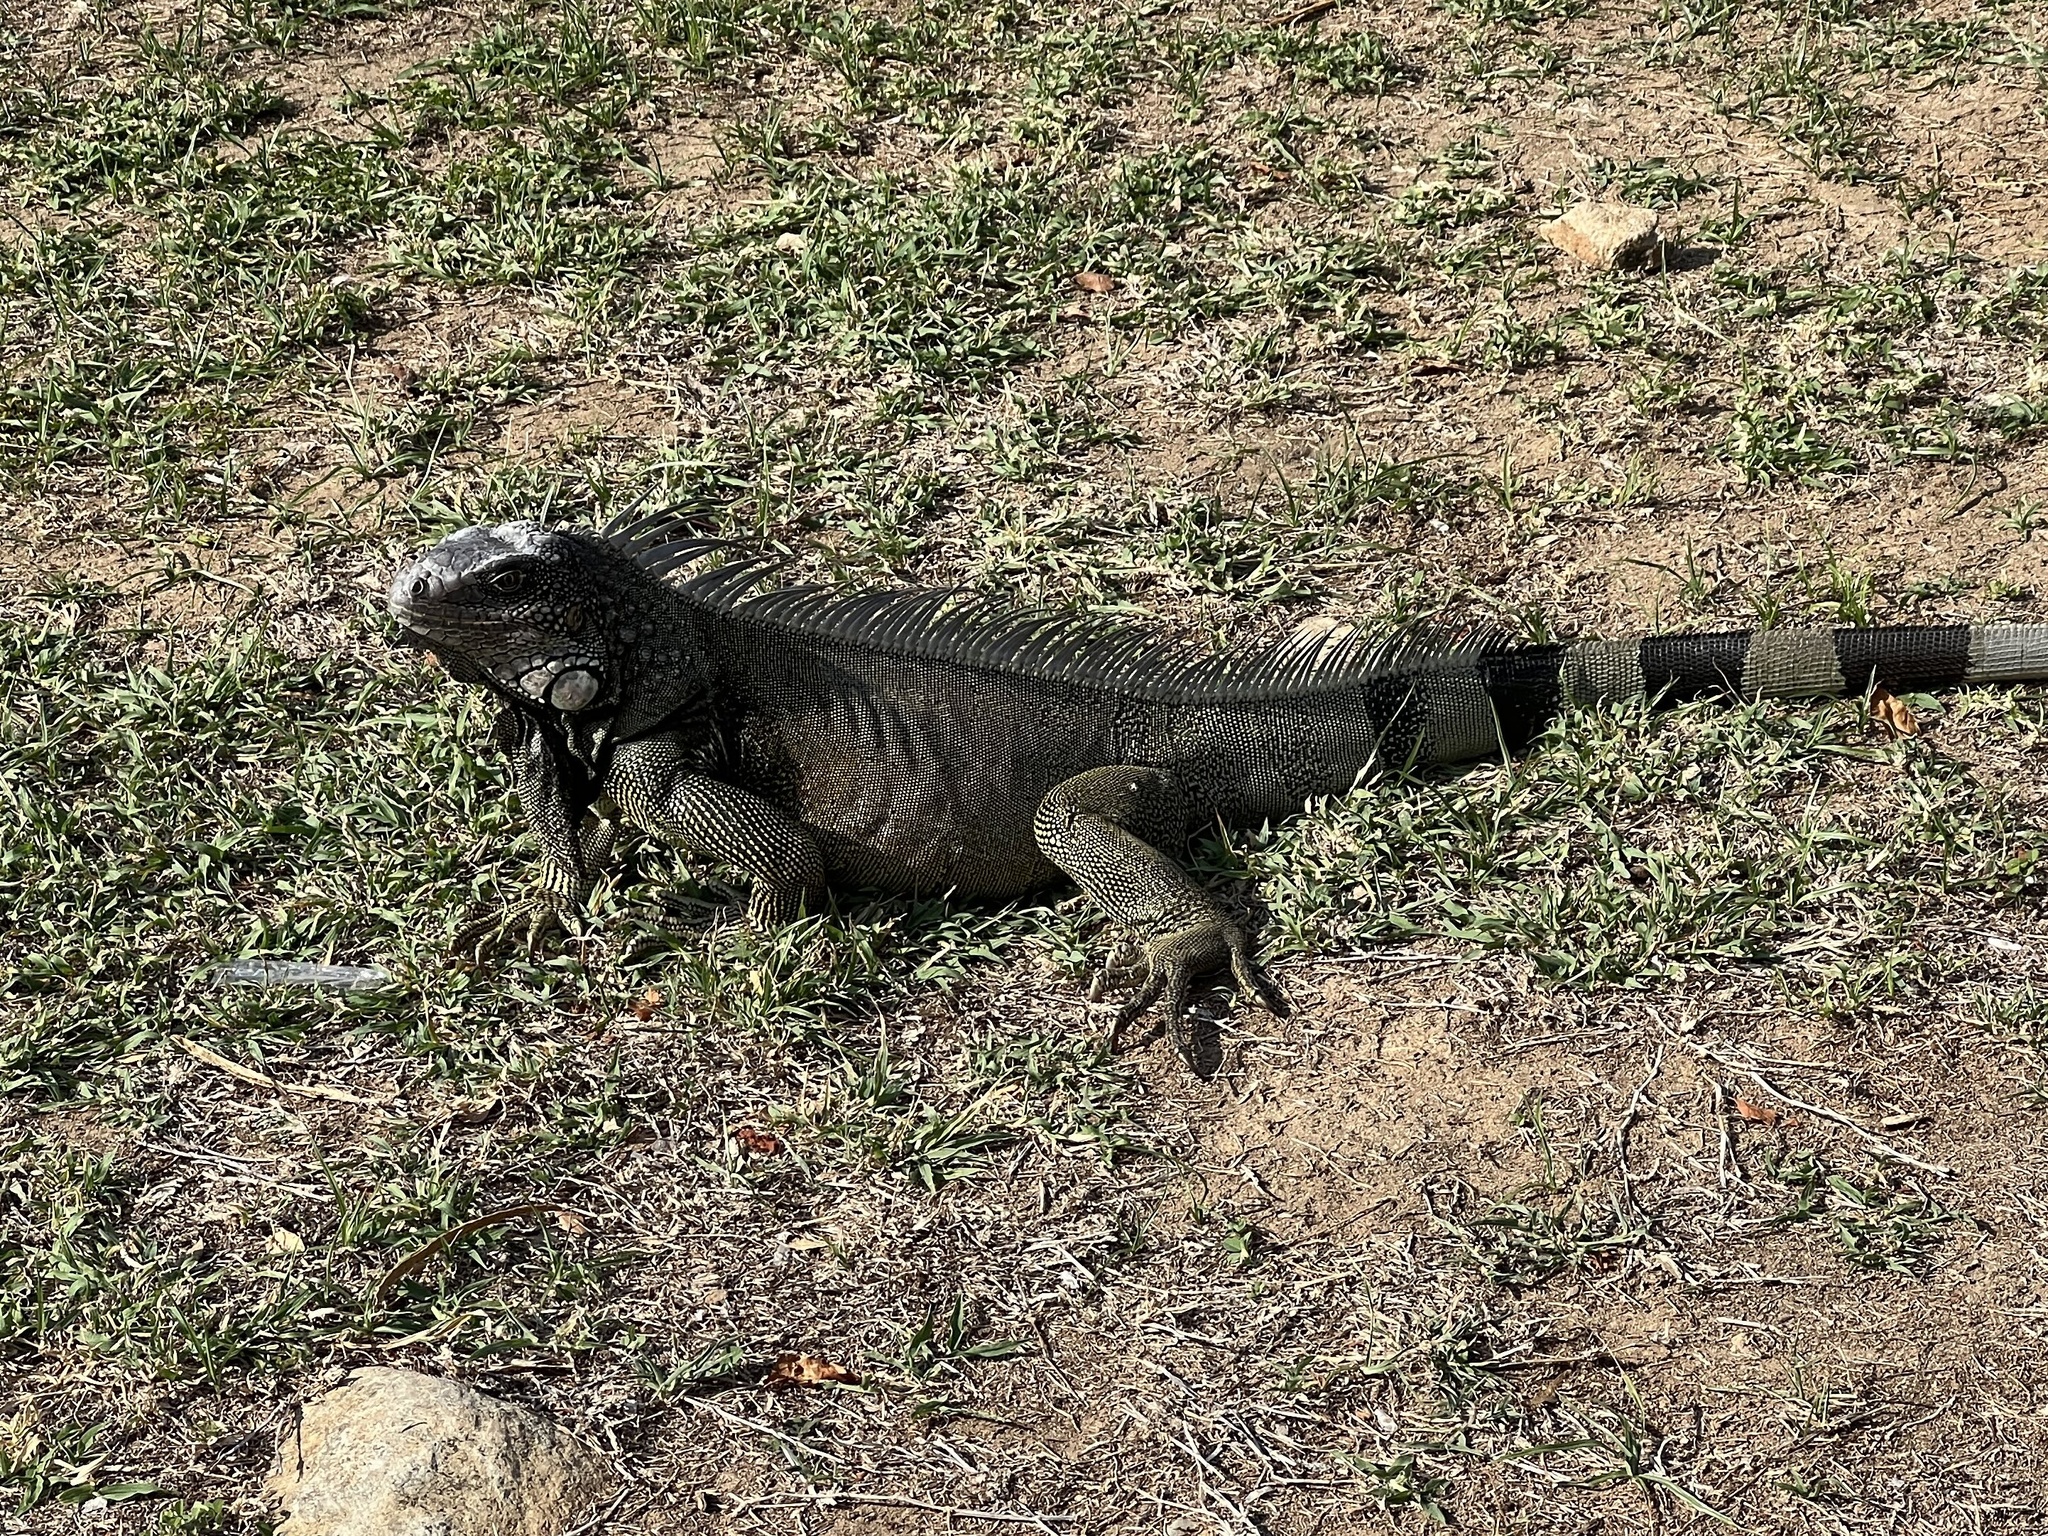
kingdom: Animalia
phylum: Chordata
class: Squamata
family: Iguanidae
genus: Iguana
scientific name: Iguana iguana
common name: Green iguana
